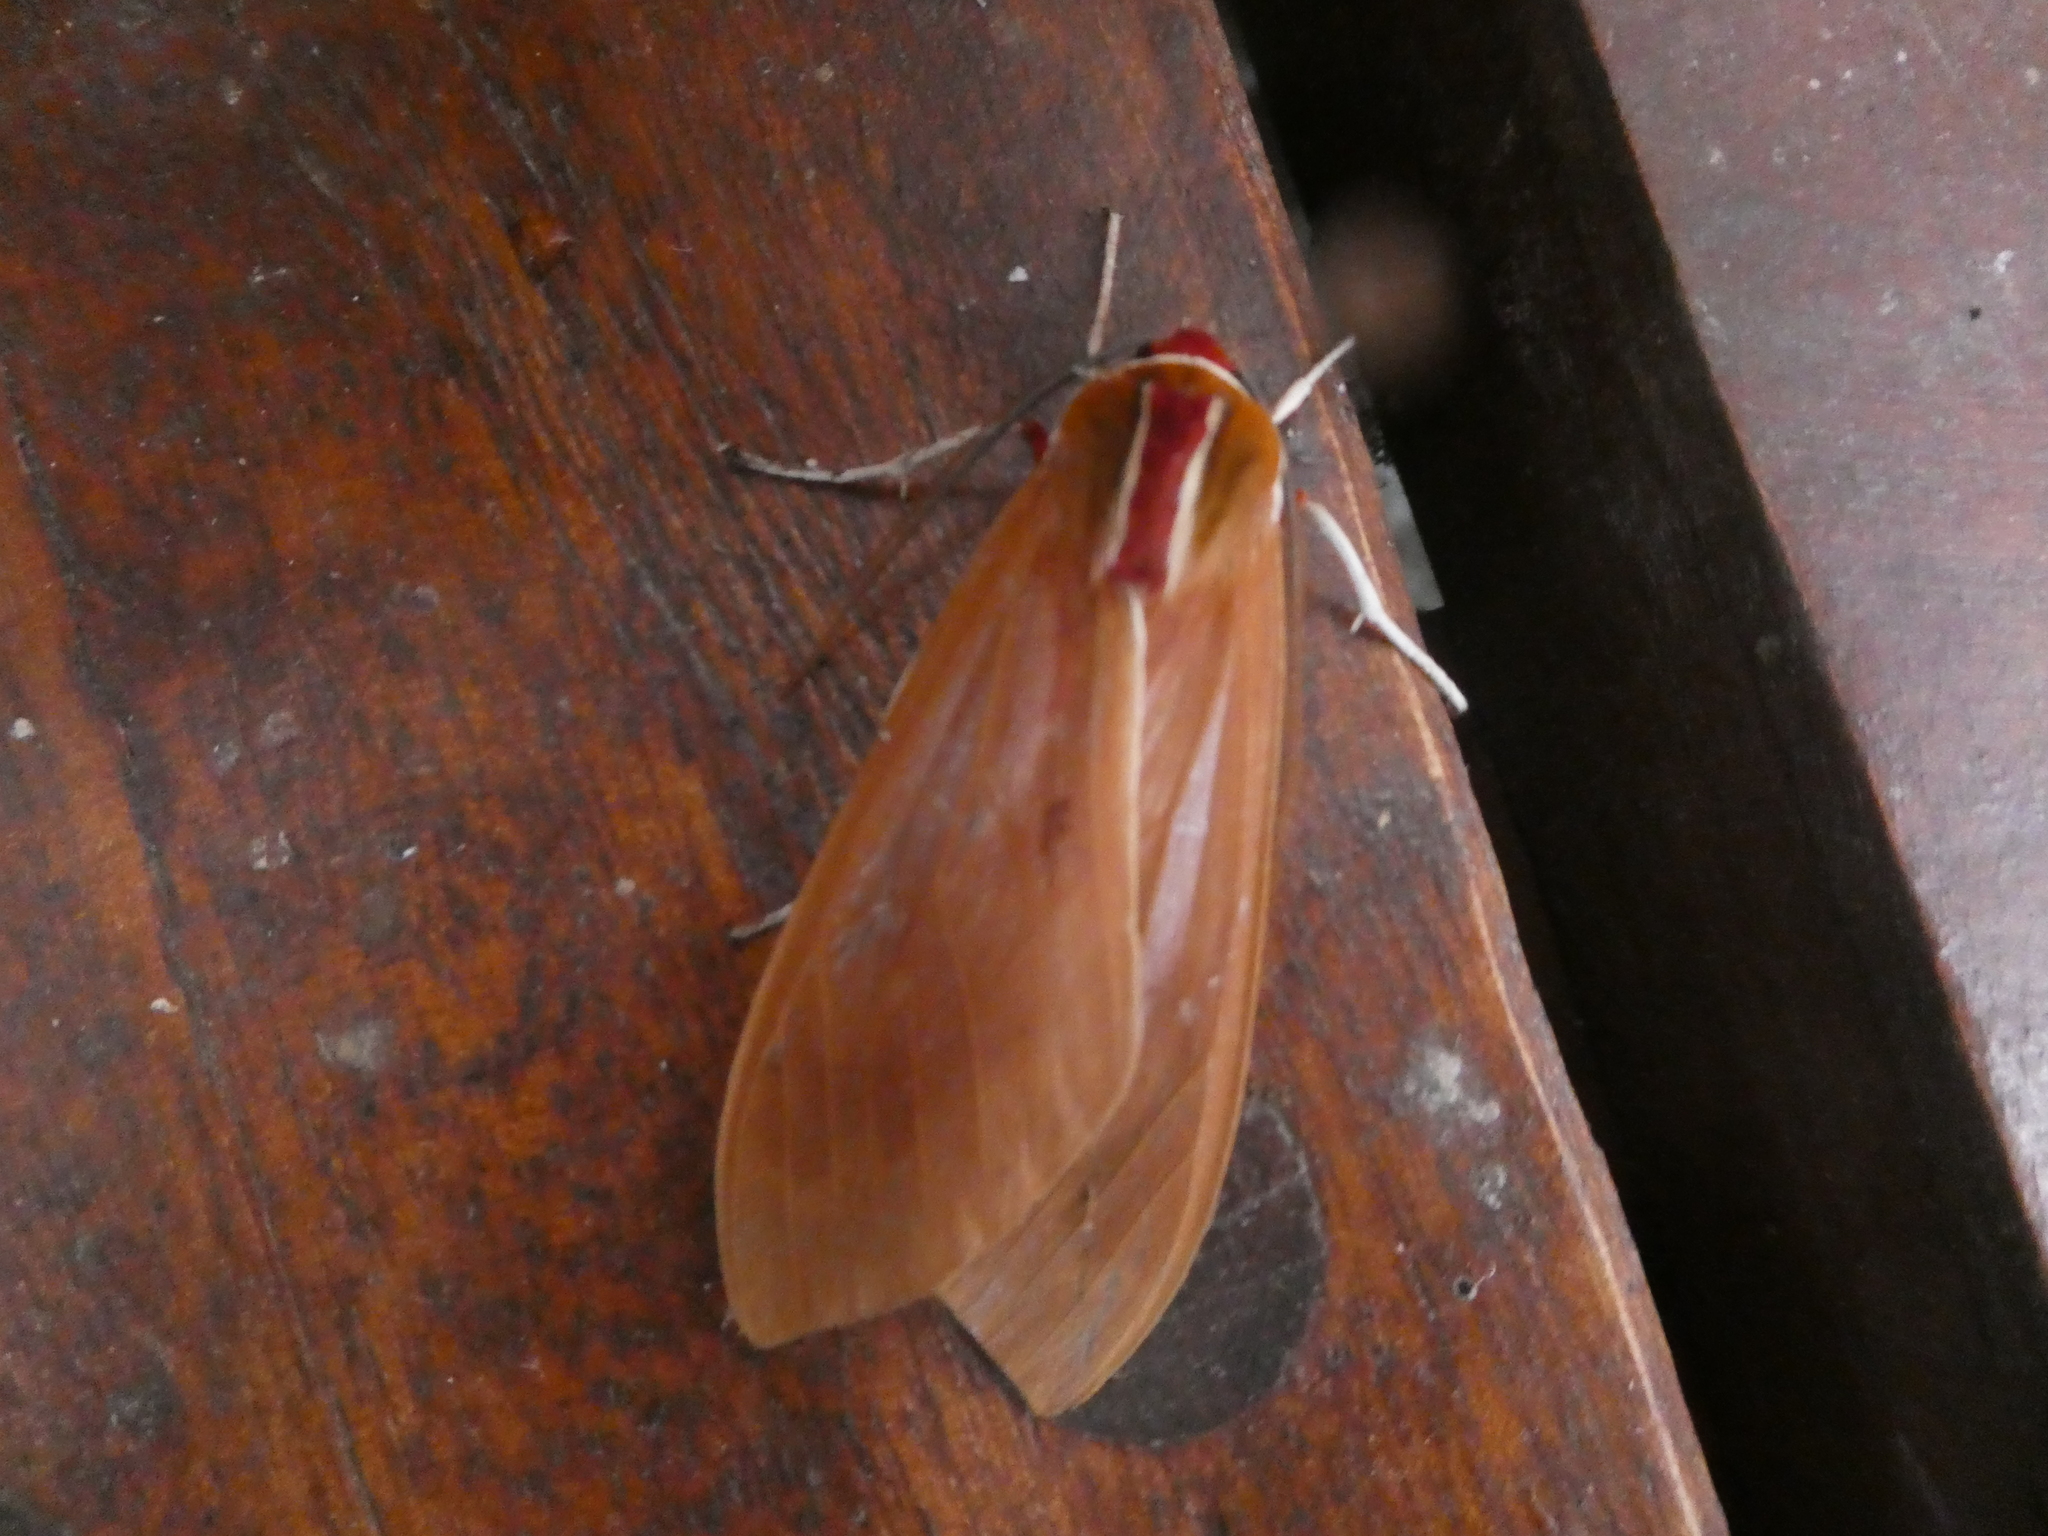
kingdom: Animalia
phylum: Arthropoda
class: Insecta
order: Lepidoptera
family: Erebidae
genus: Amastus
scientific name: Amastus coccinator
